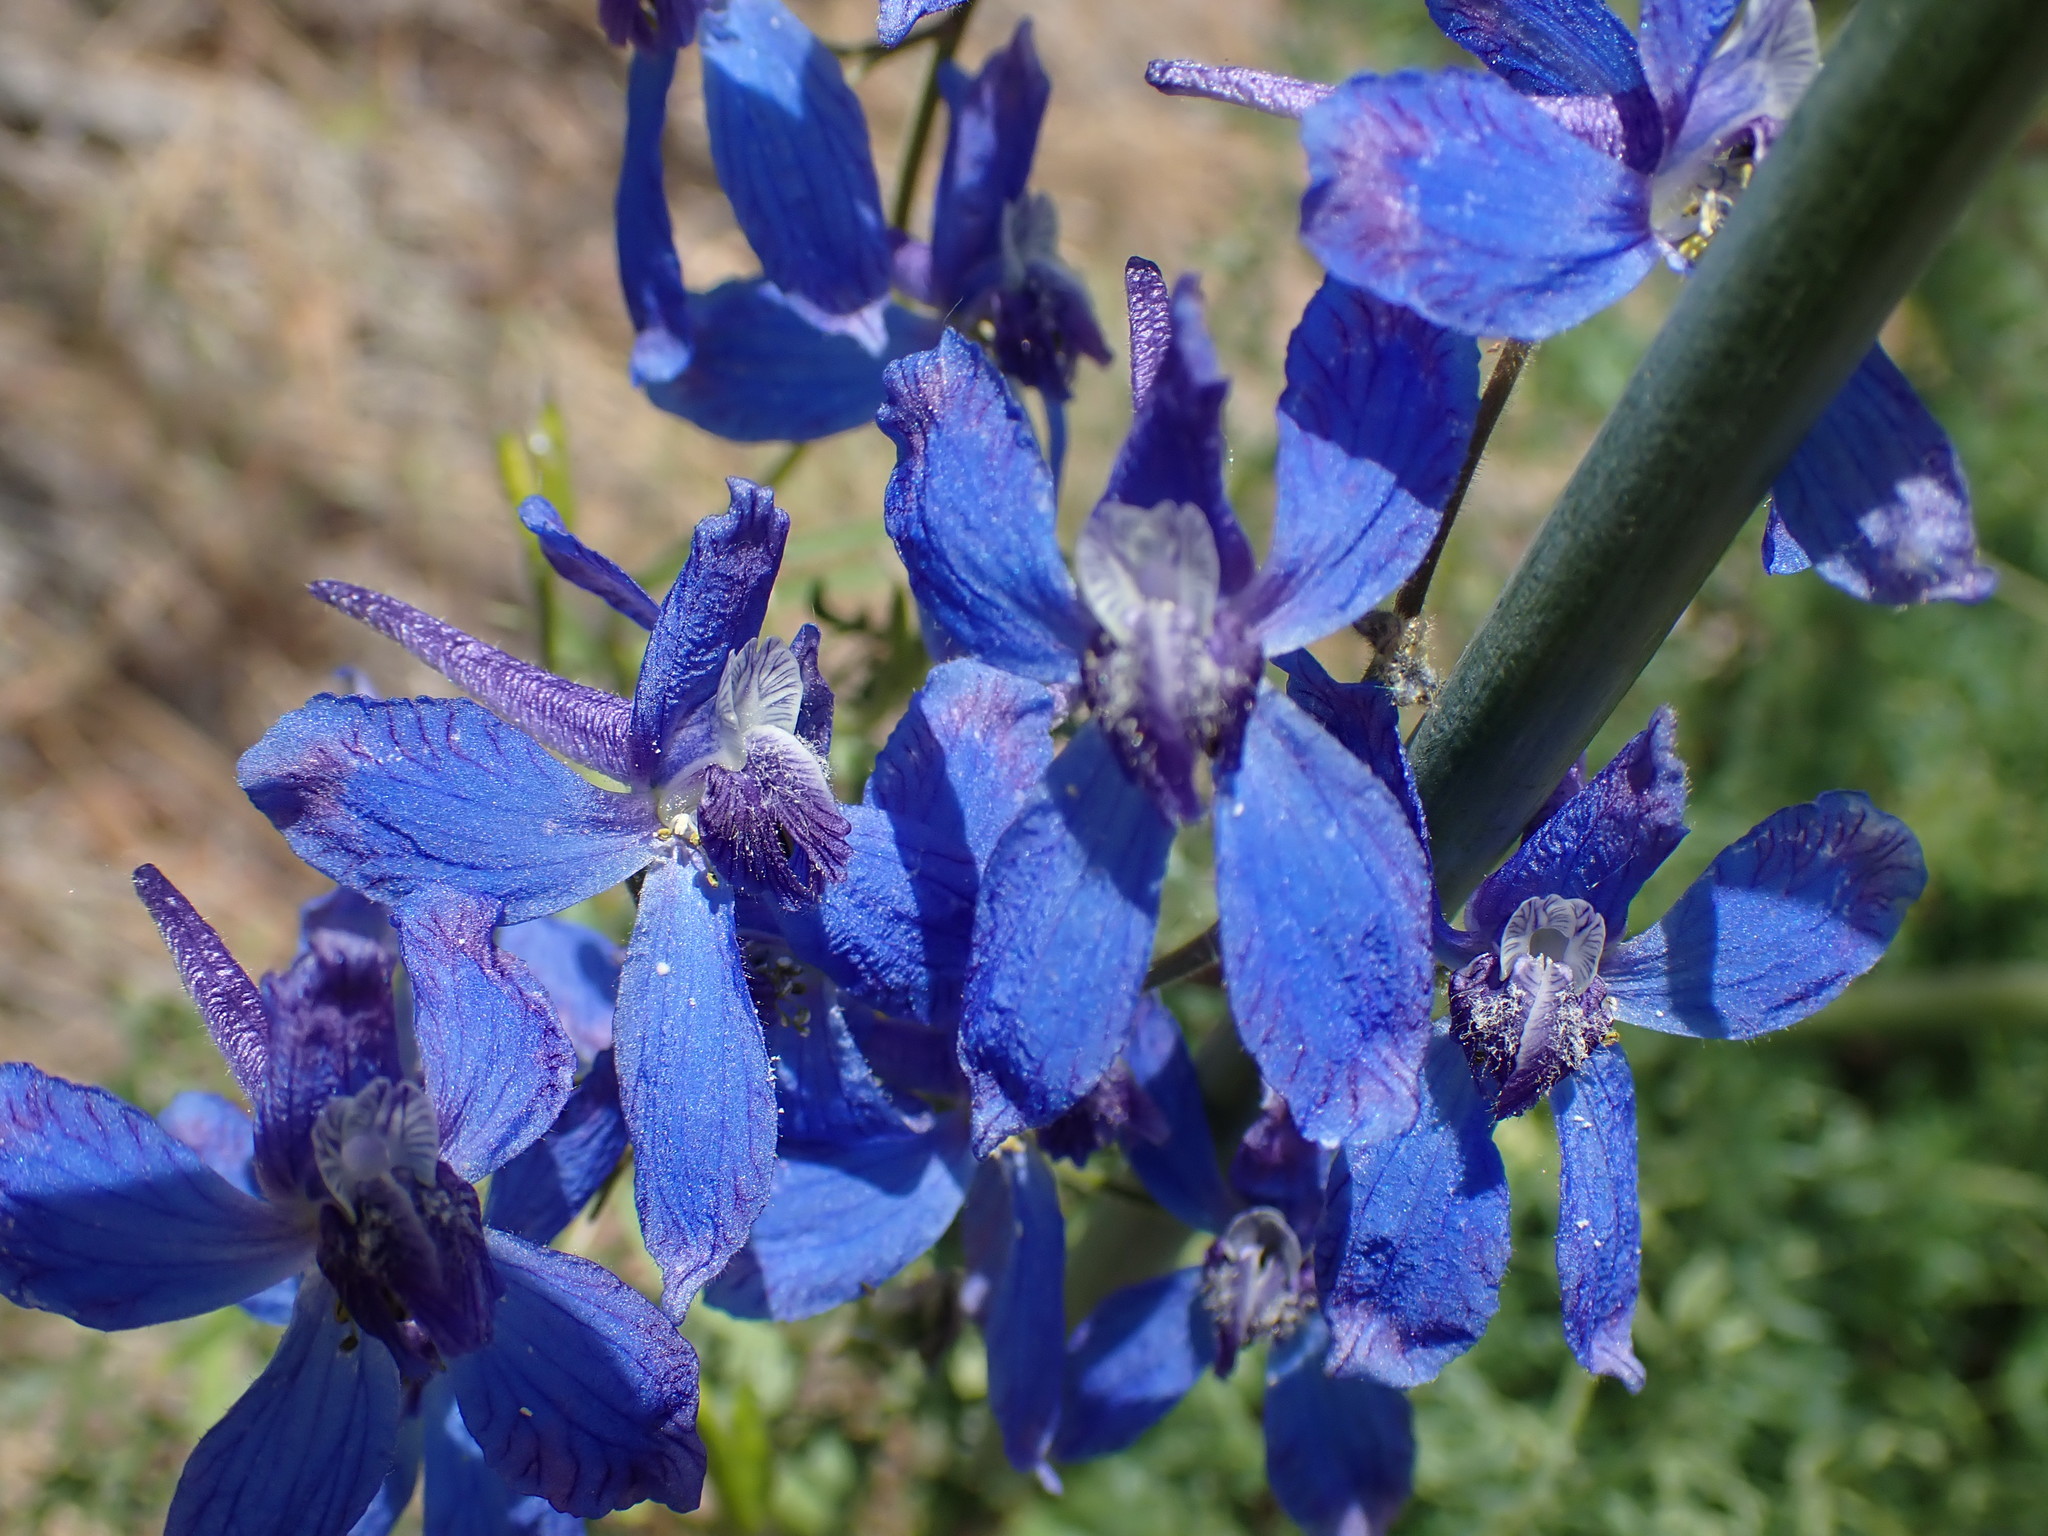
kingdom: Plantae
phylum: Tracheophyta
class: Magnoliopsida
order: Ranunculales
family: Ranunculaceae
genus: Delphinium
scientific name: Delphinium nuttallianum
